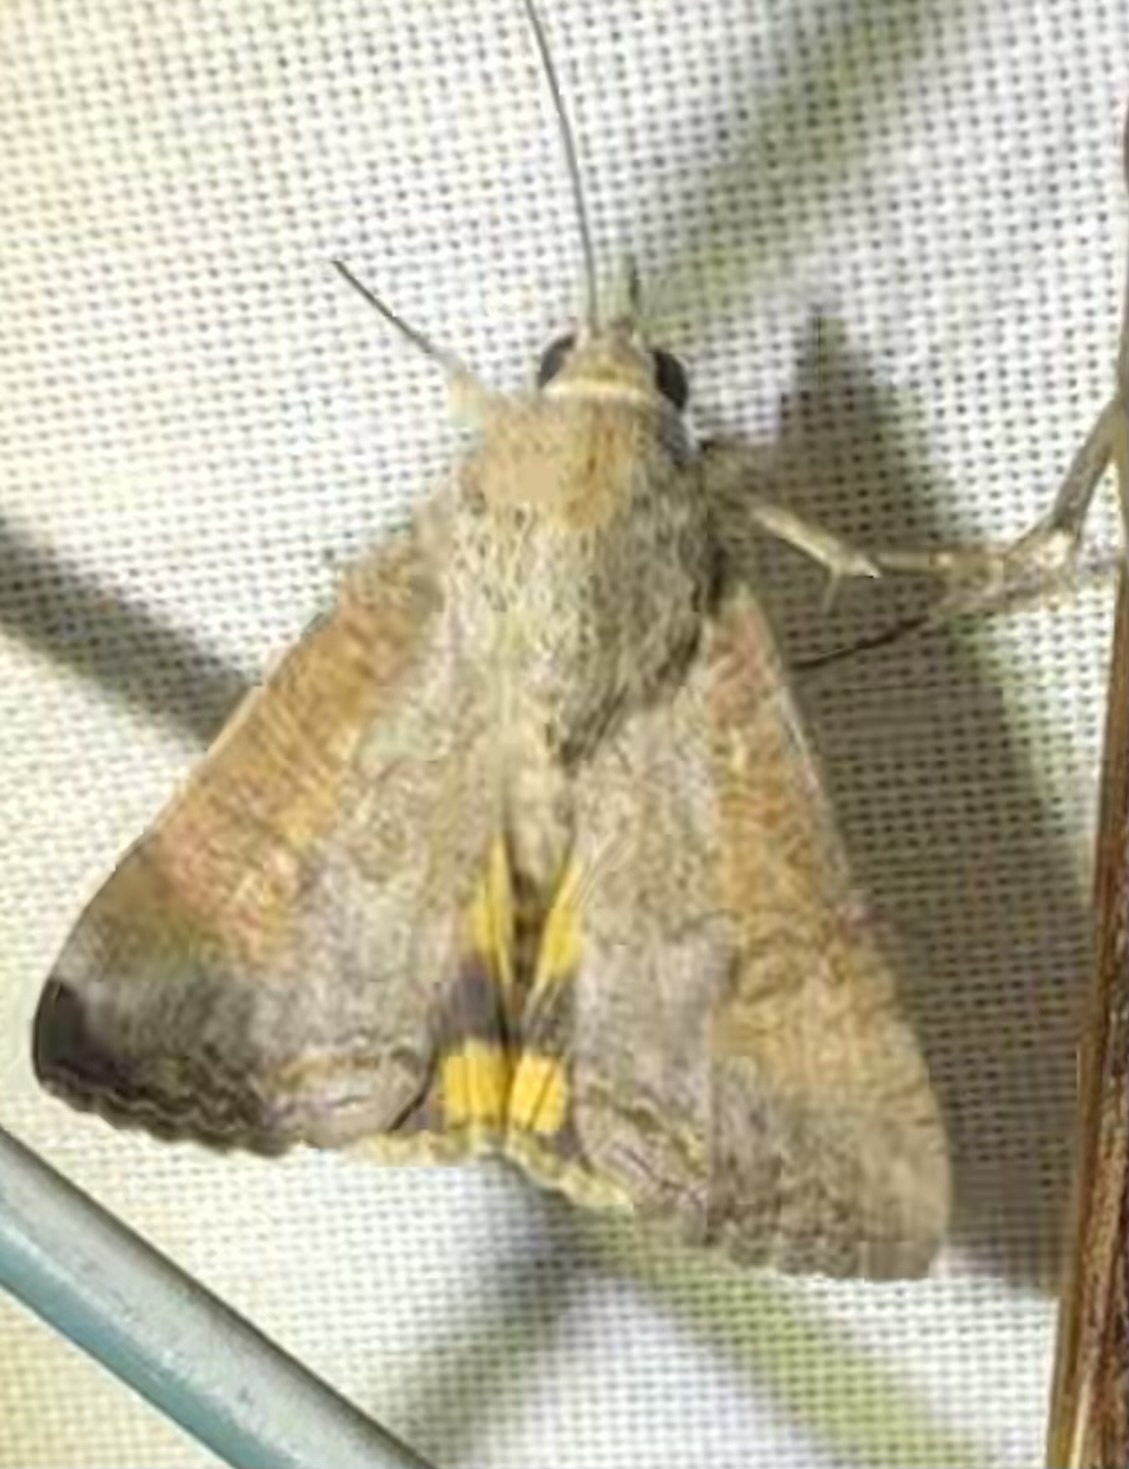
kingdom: Animalia
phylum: Arthropoda
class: Insecta
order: Lepidoptera
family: Erebidae
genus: Hypocala
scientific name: Hypocala deflorata
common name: Moth
